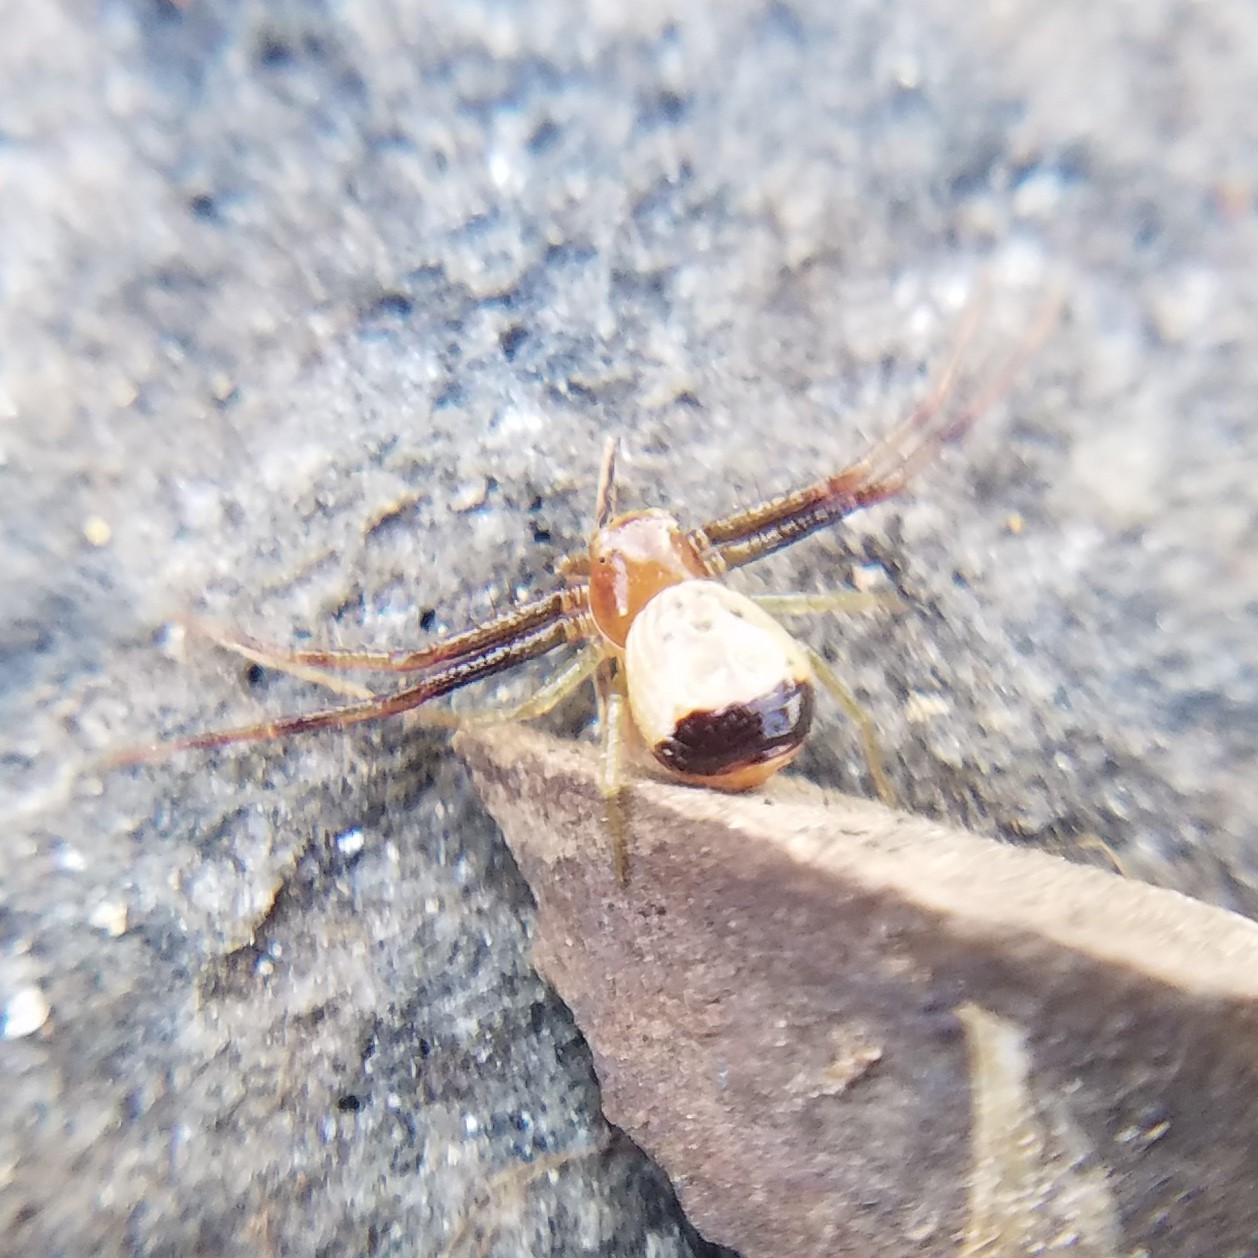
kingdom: Animalia
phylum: Arthropoda
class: Arachnida
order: Araneae
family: Thomisidae
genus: Synema
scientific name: Synema parvulum
